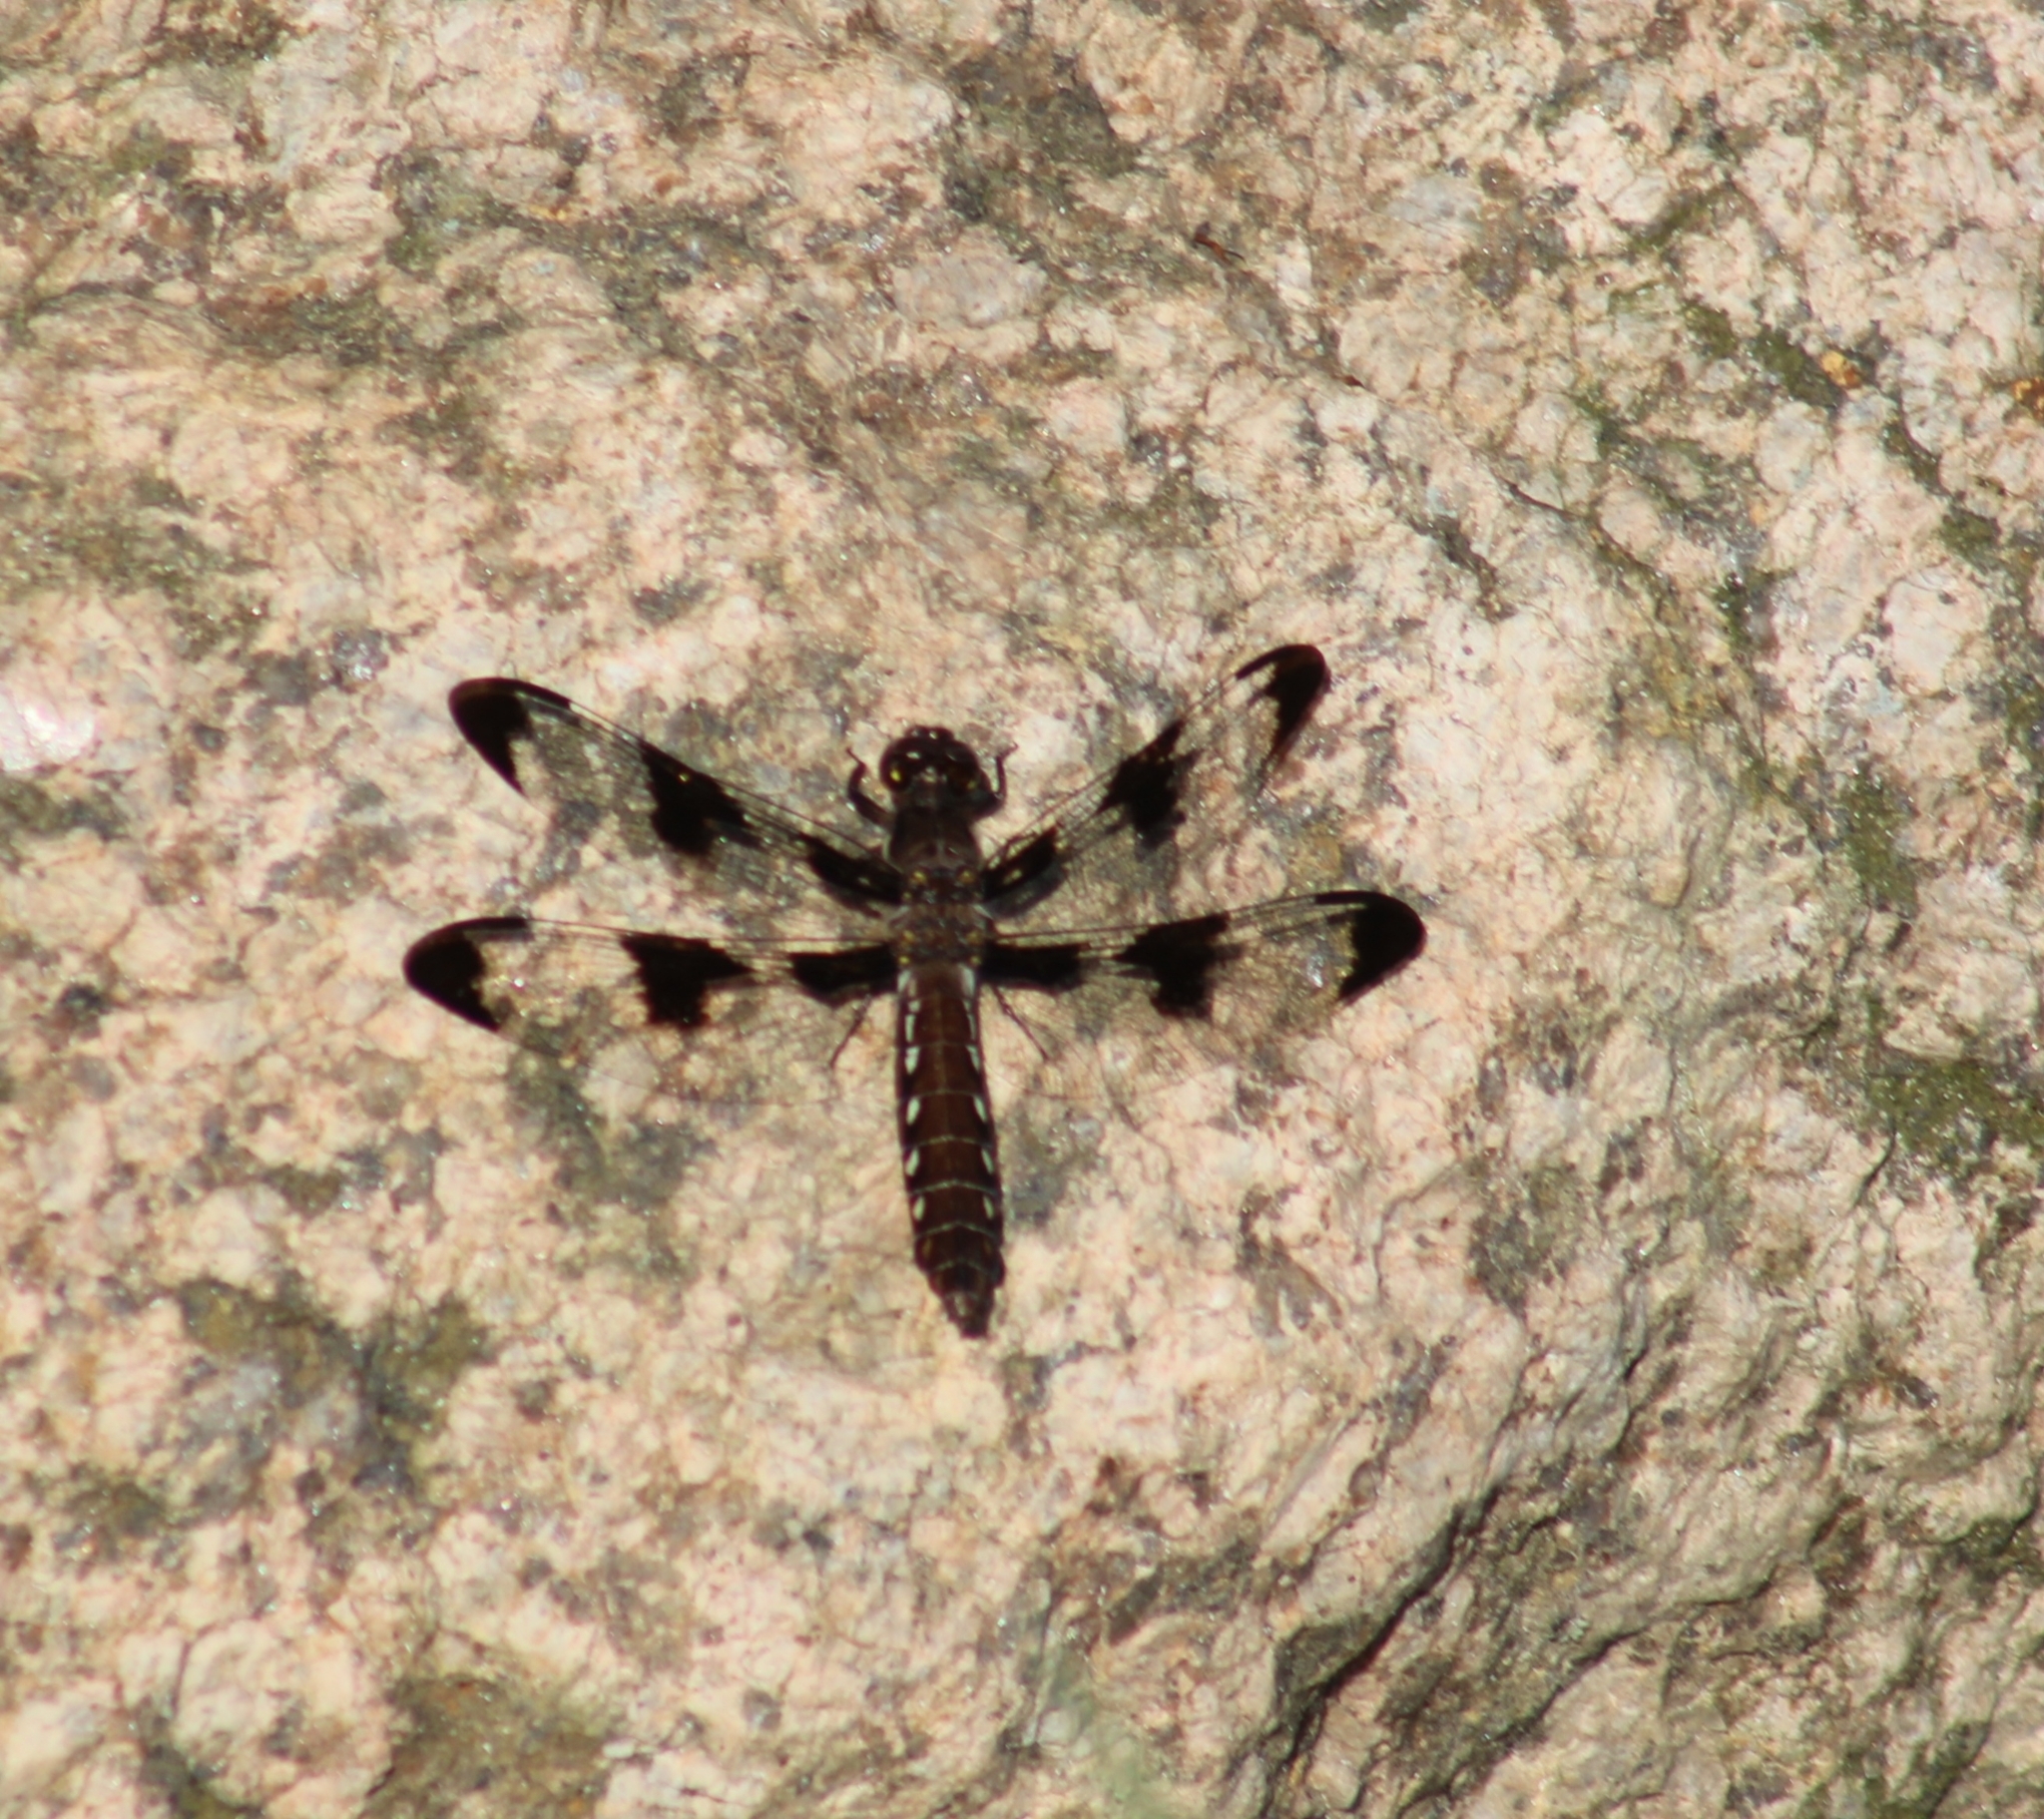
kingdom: Animalia
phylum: Arthropoda
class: Insecta
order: Odonata
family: Libellulidae
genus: Plathemis
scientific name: Plathemis lydia
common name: Common whitetail
